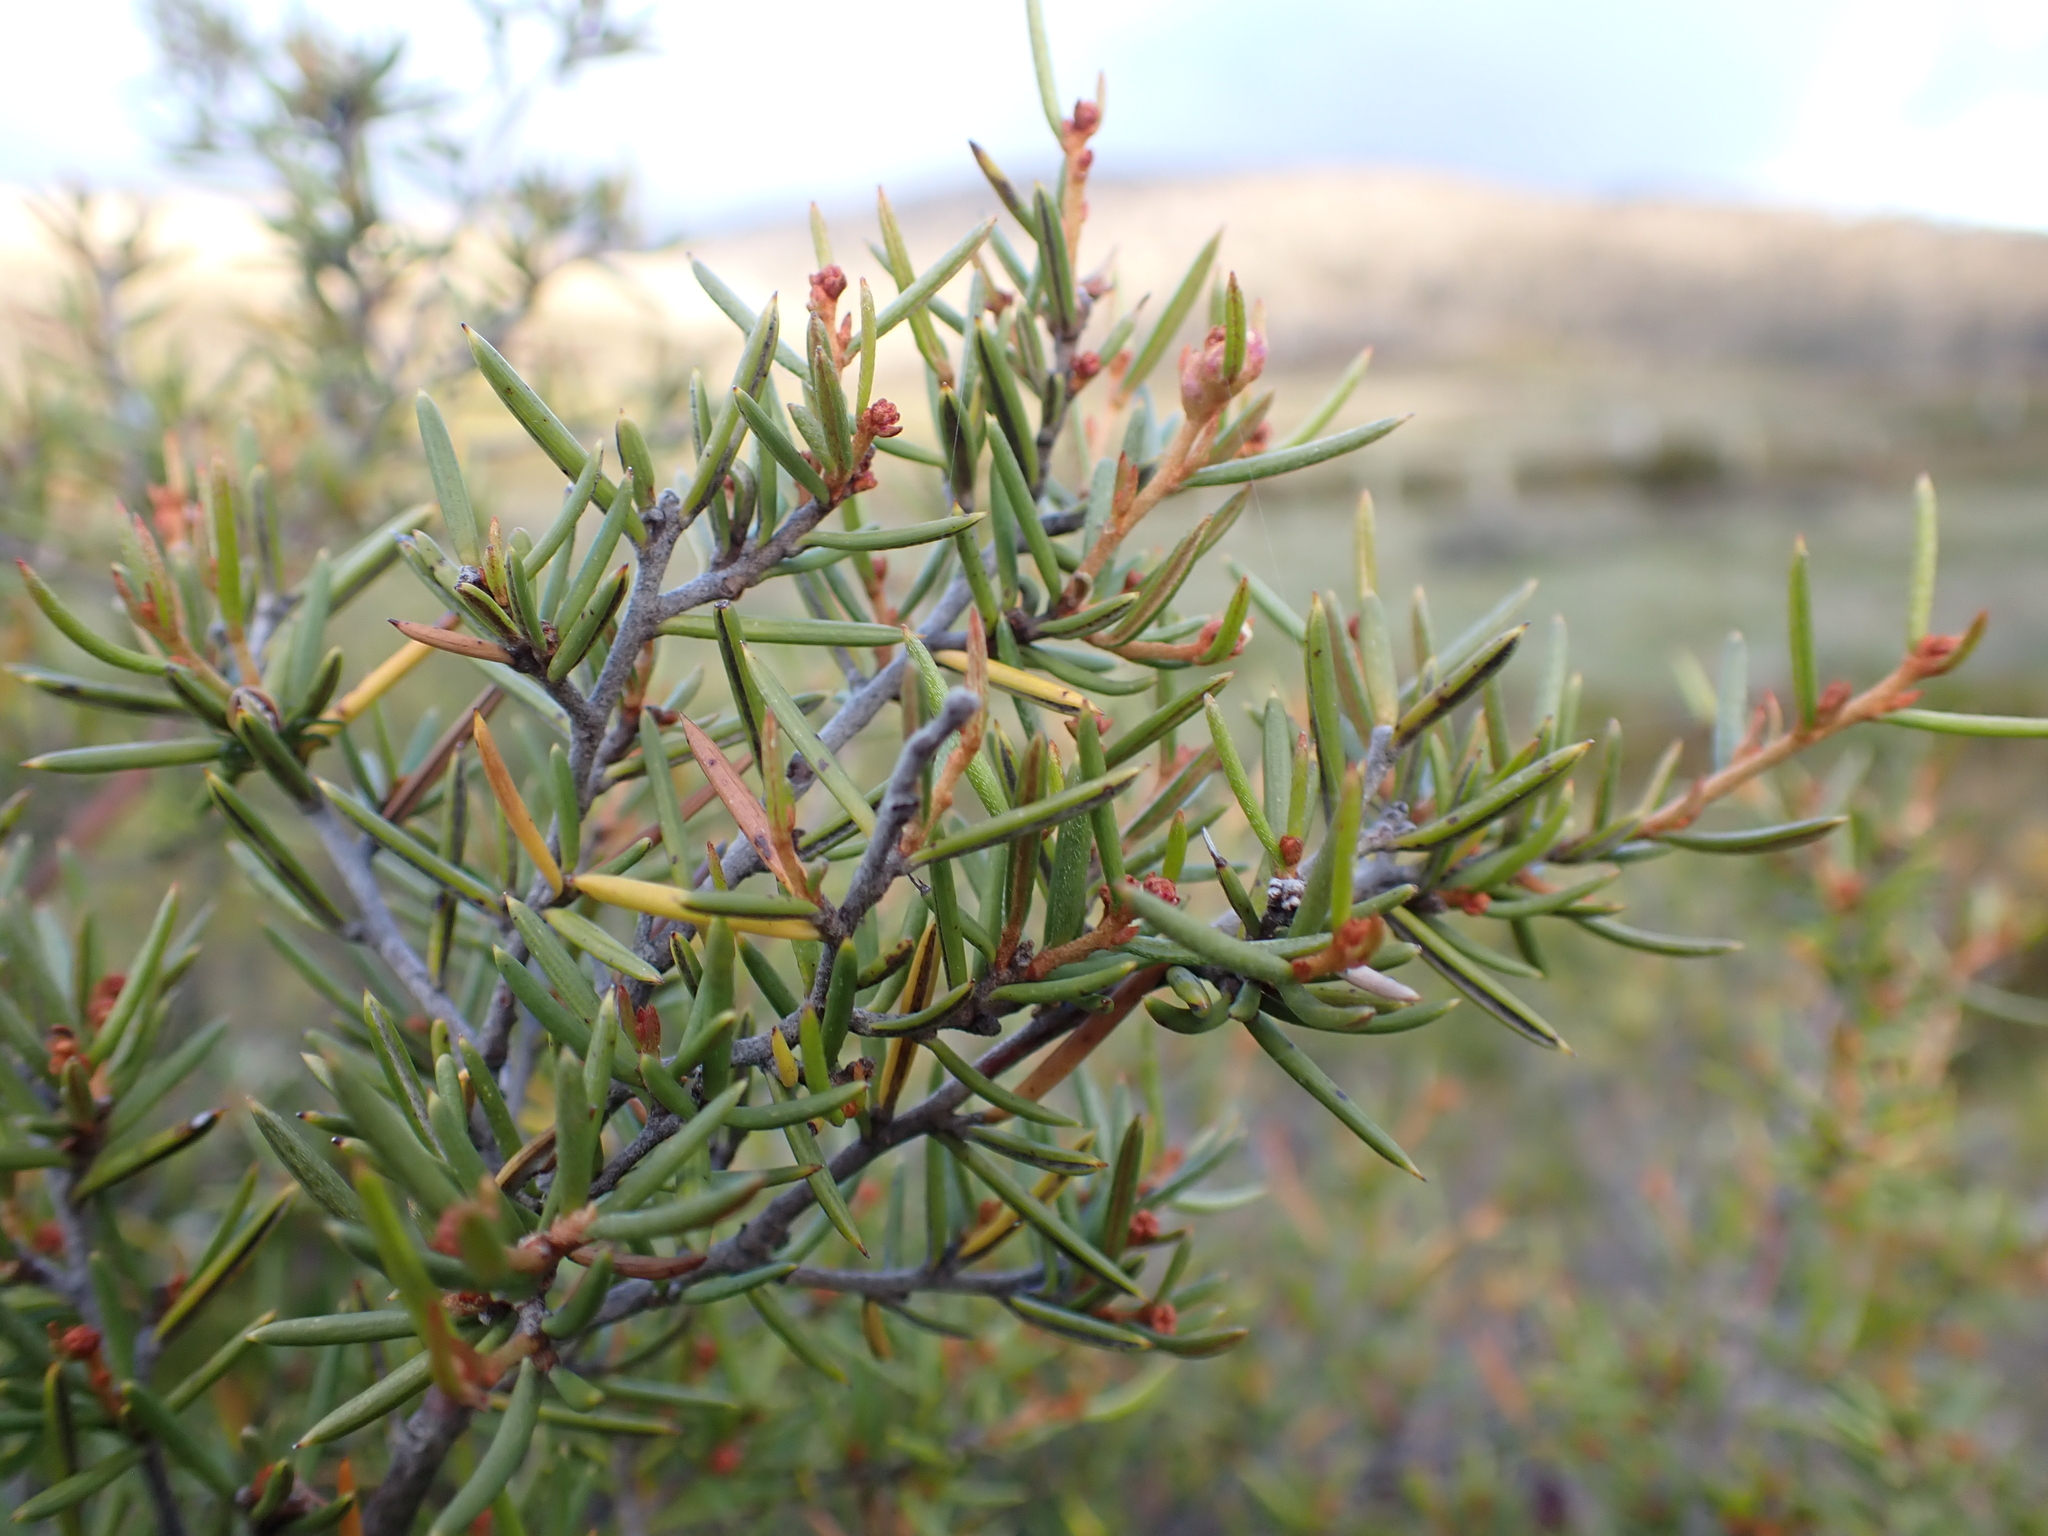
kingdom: Plantae
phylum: Tracheophyta
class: Magnoliopsida
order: Proteales
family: Proteaceae
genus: Grevillea
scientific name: Grevillea australis
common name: Alpine grevillea
